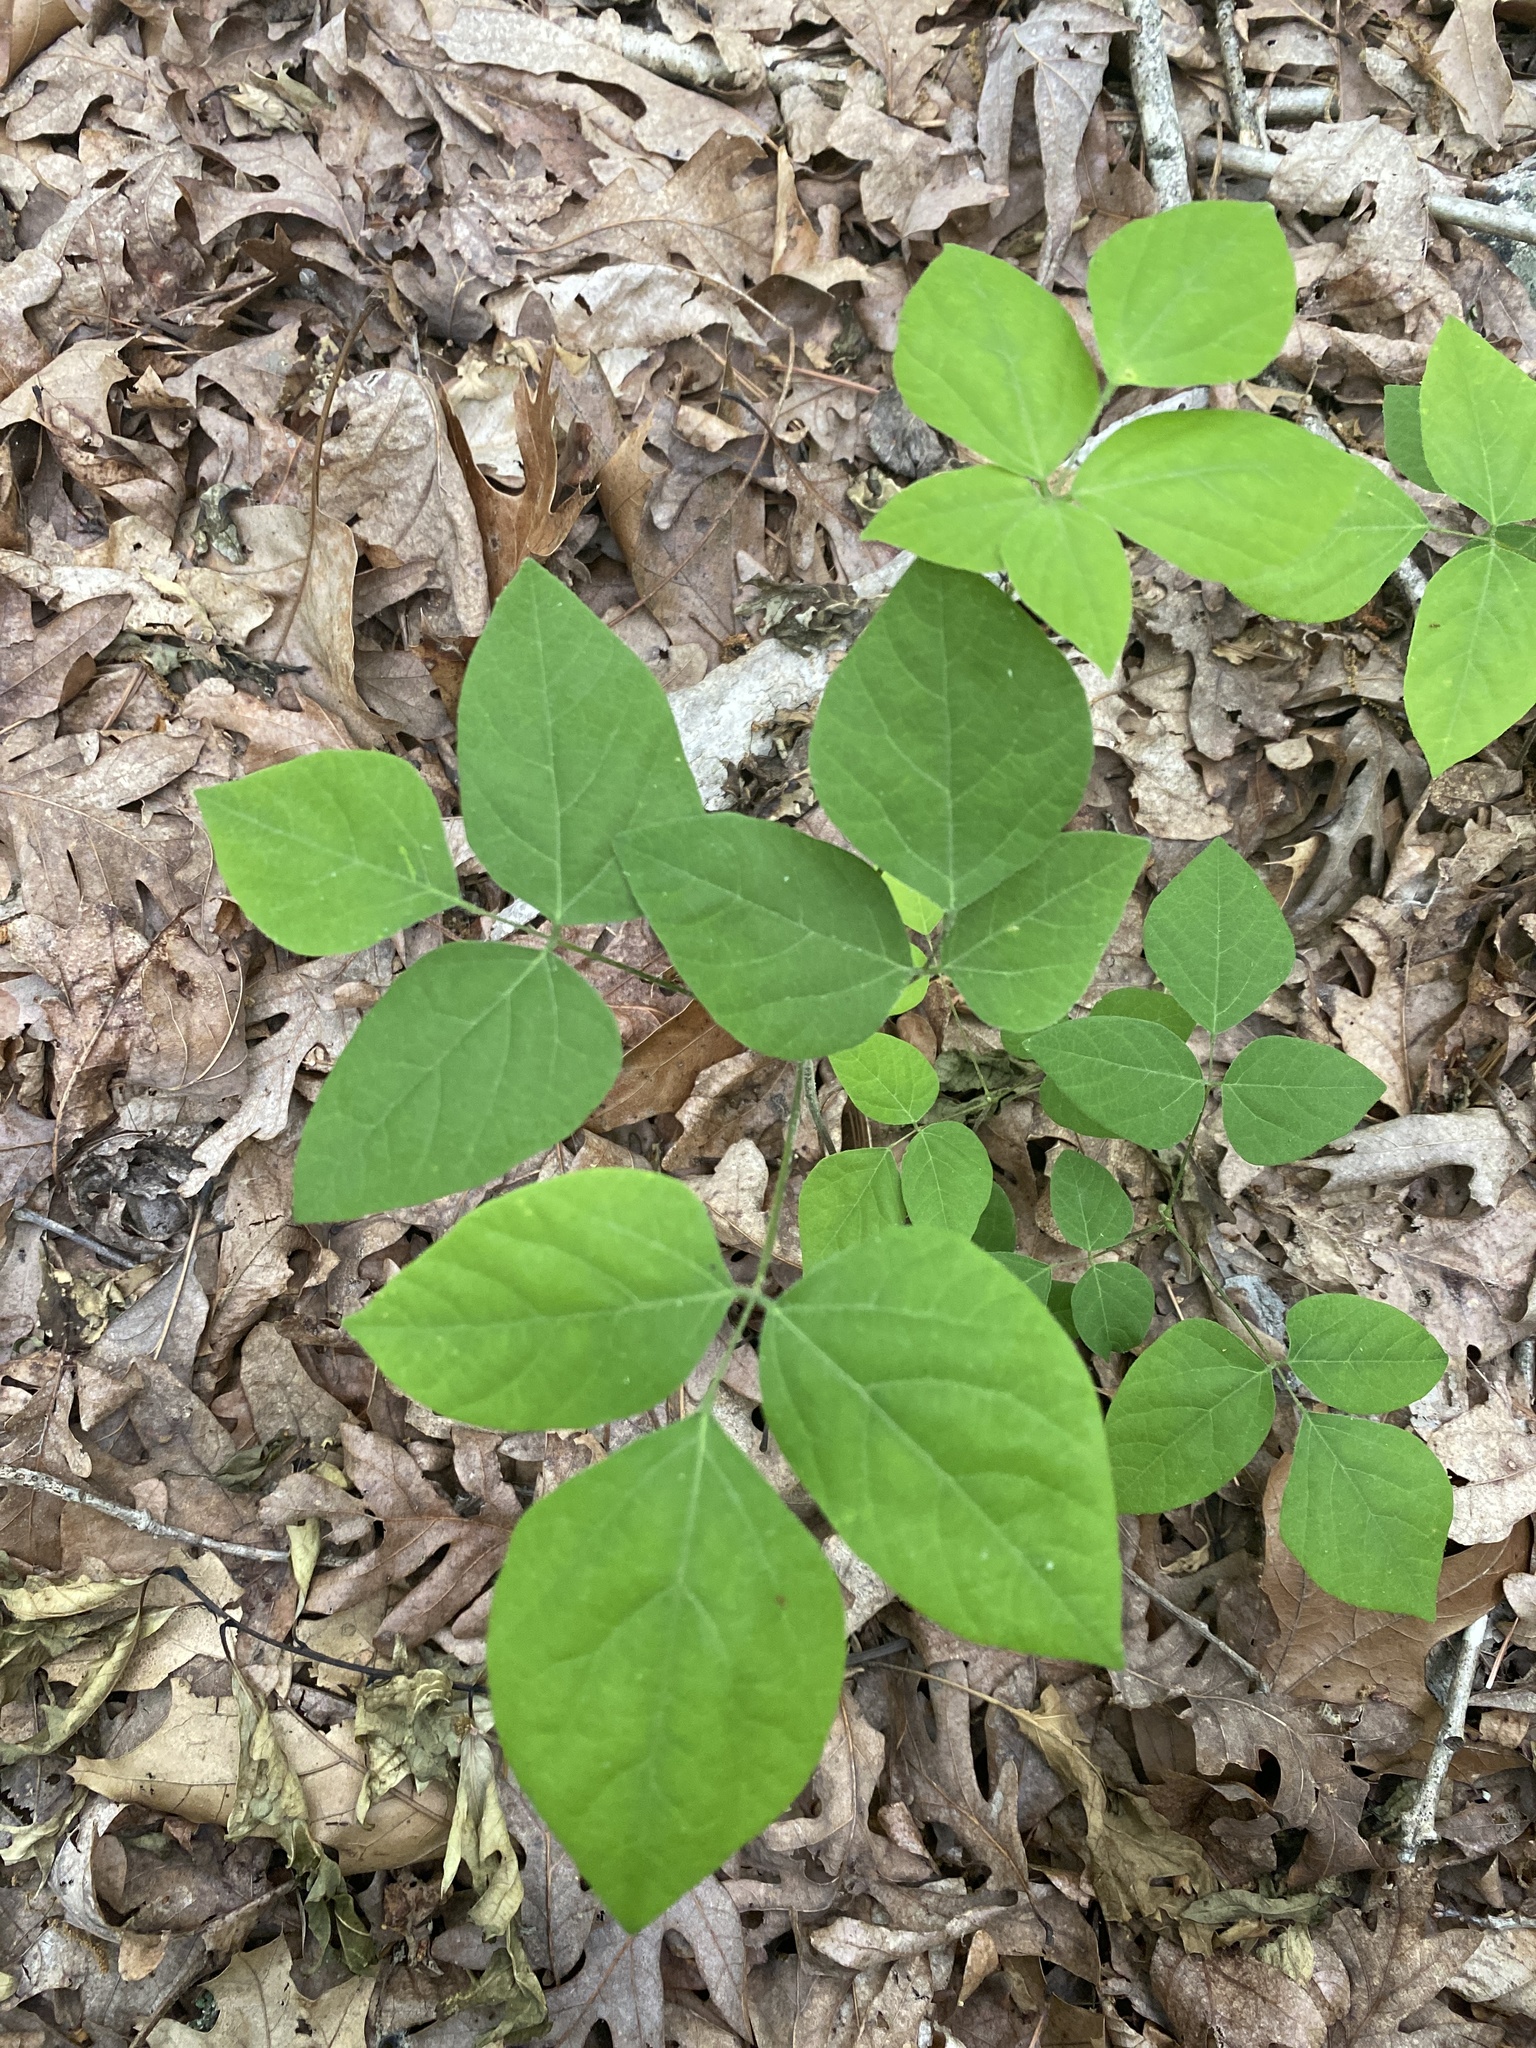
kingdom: Plantae
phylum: Tracheophyta
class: Magnoliopsida
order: Fabales
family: Fabaceae
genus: Hylodesmum
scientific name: Hylodesmum nudiflorum
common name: Bare-stemmed tick-trefoil
